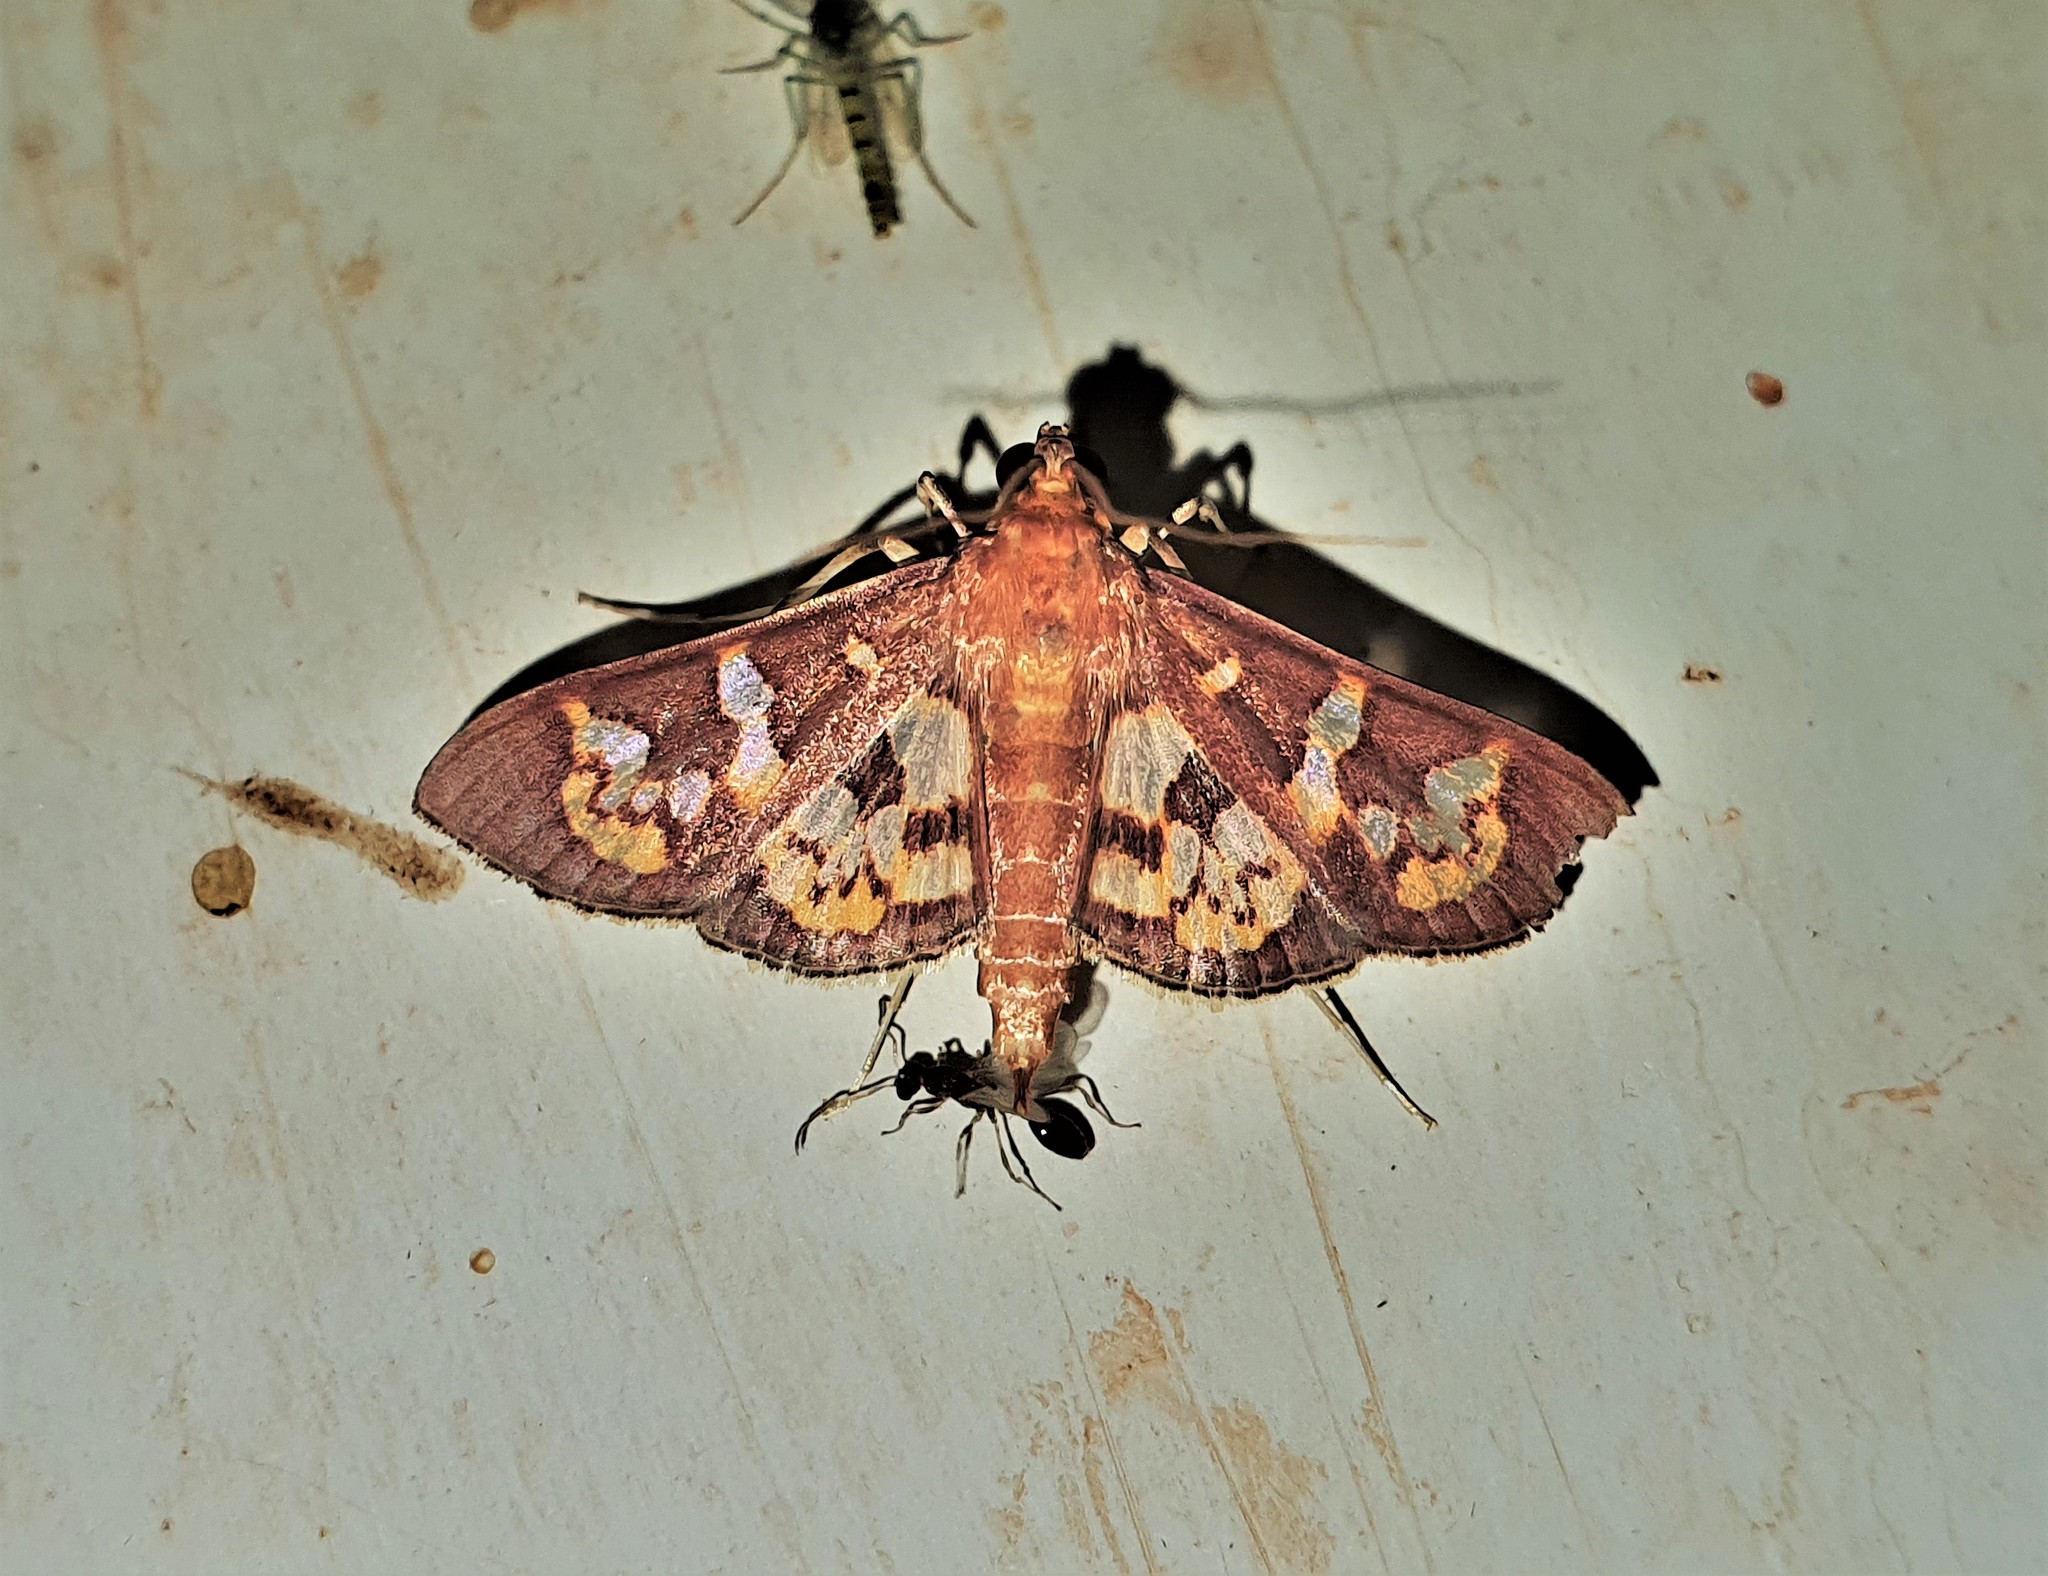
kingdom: Animalia
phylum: Arthropoda
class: Insecta
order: Lepidoptera
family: Crambidae
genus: Trithyris
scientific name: Trithyris Prenesta fenestrinalis
